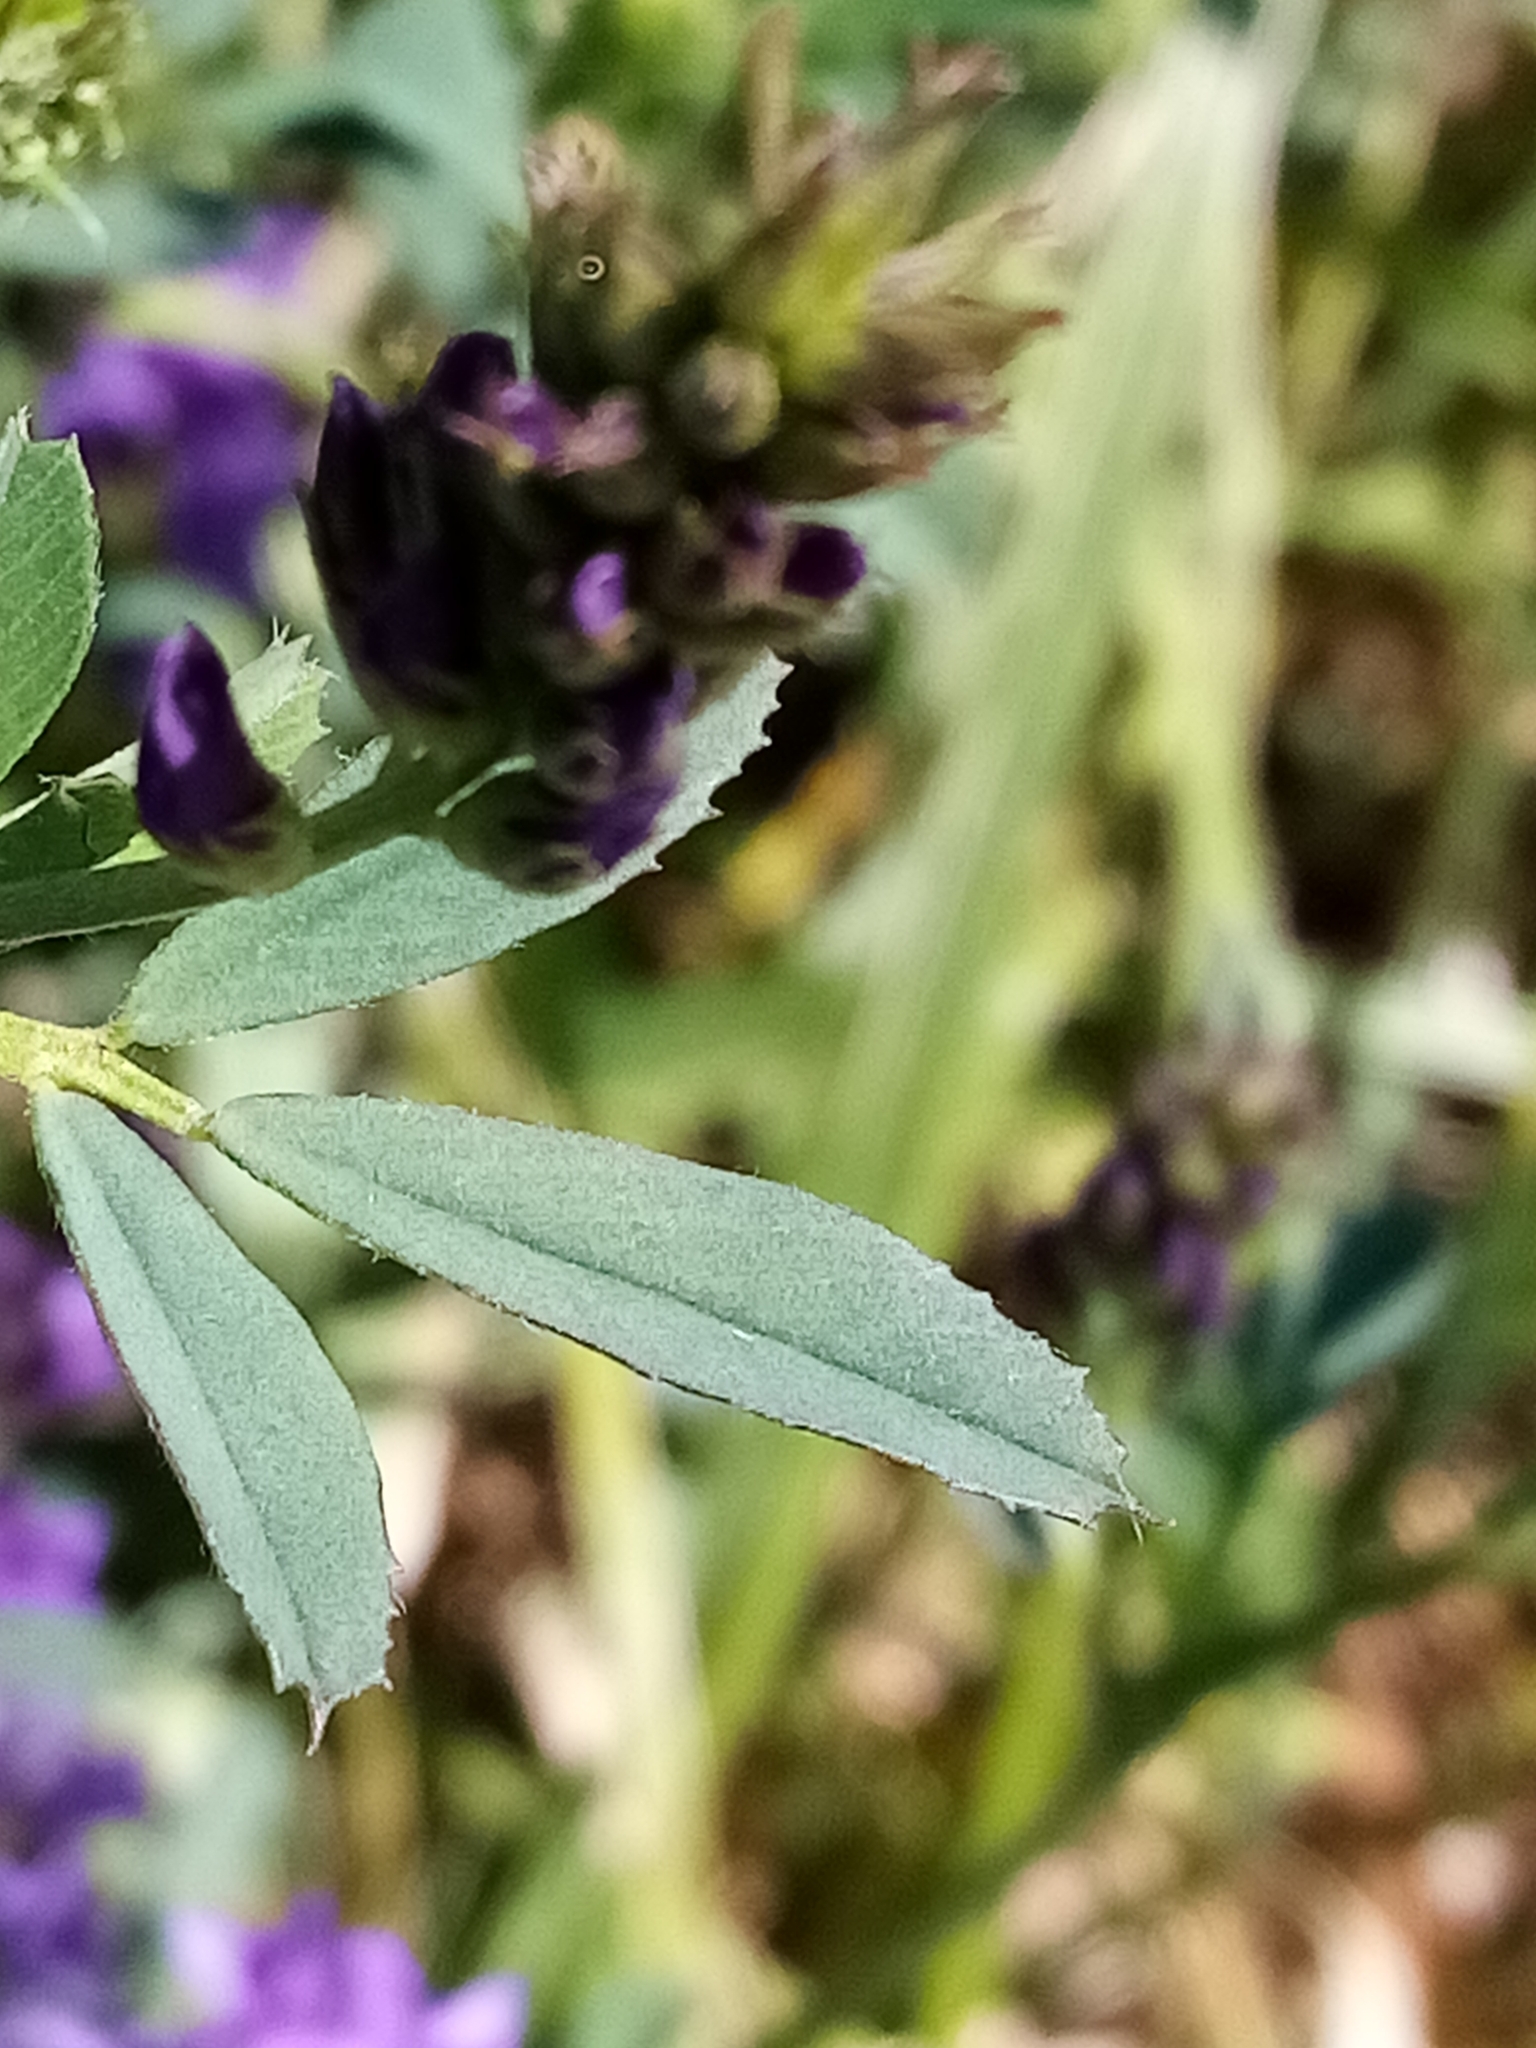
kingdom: Plantae
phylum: Tracheophyta
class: Magnoliopsida
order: Fabales
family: Fabaceae
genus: Medicago
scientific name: Medicago sativa
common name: Alfalfa
